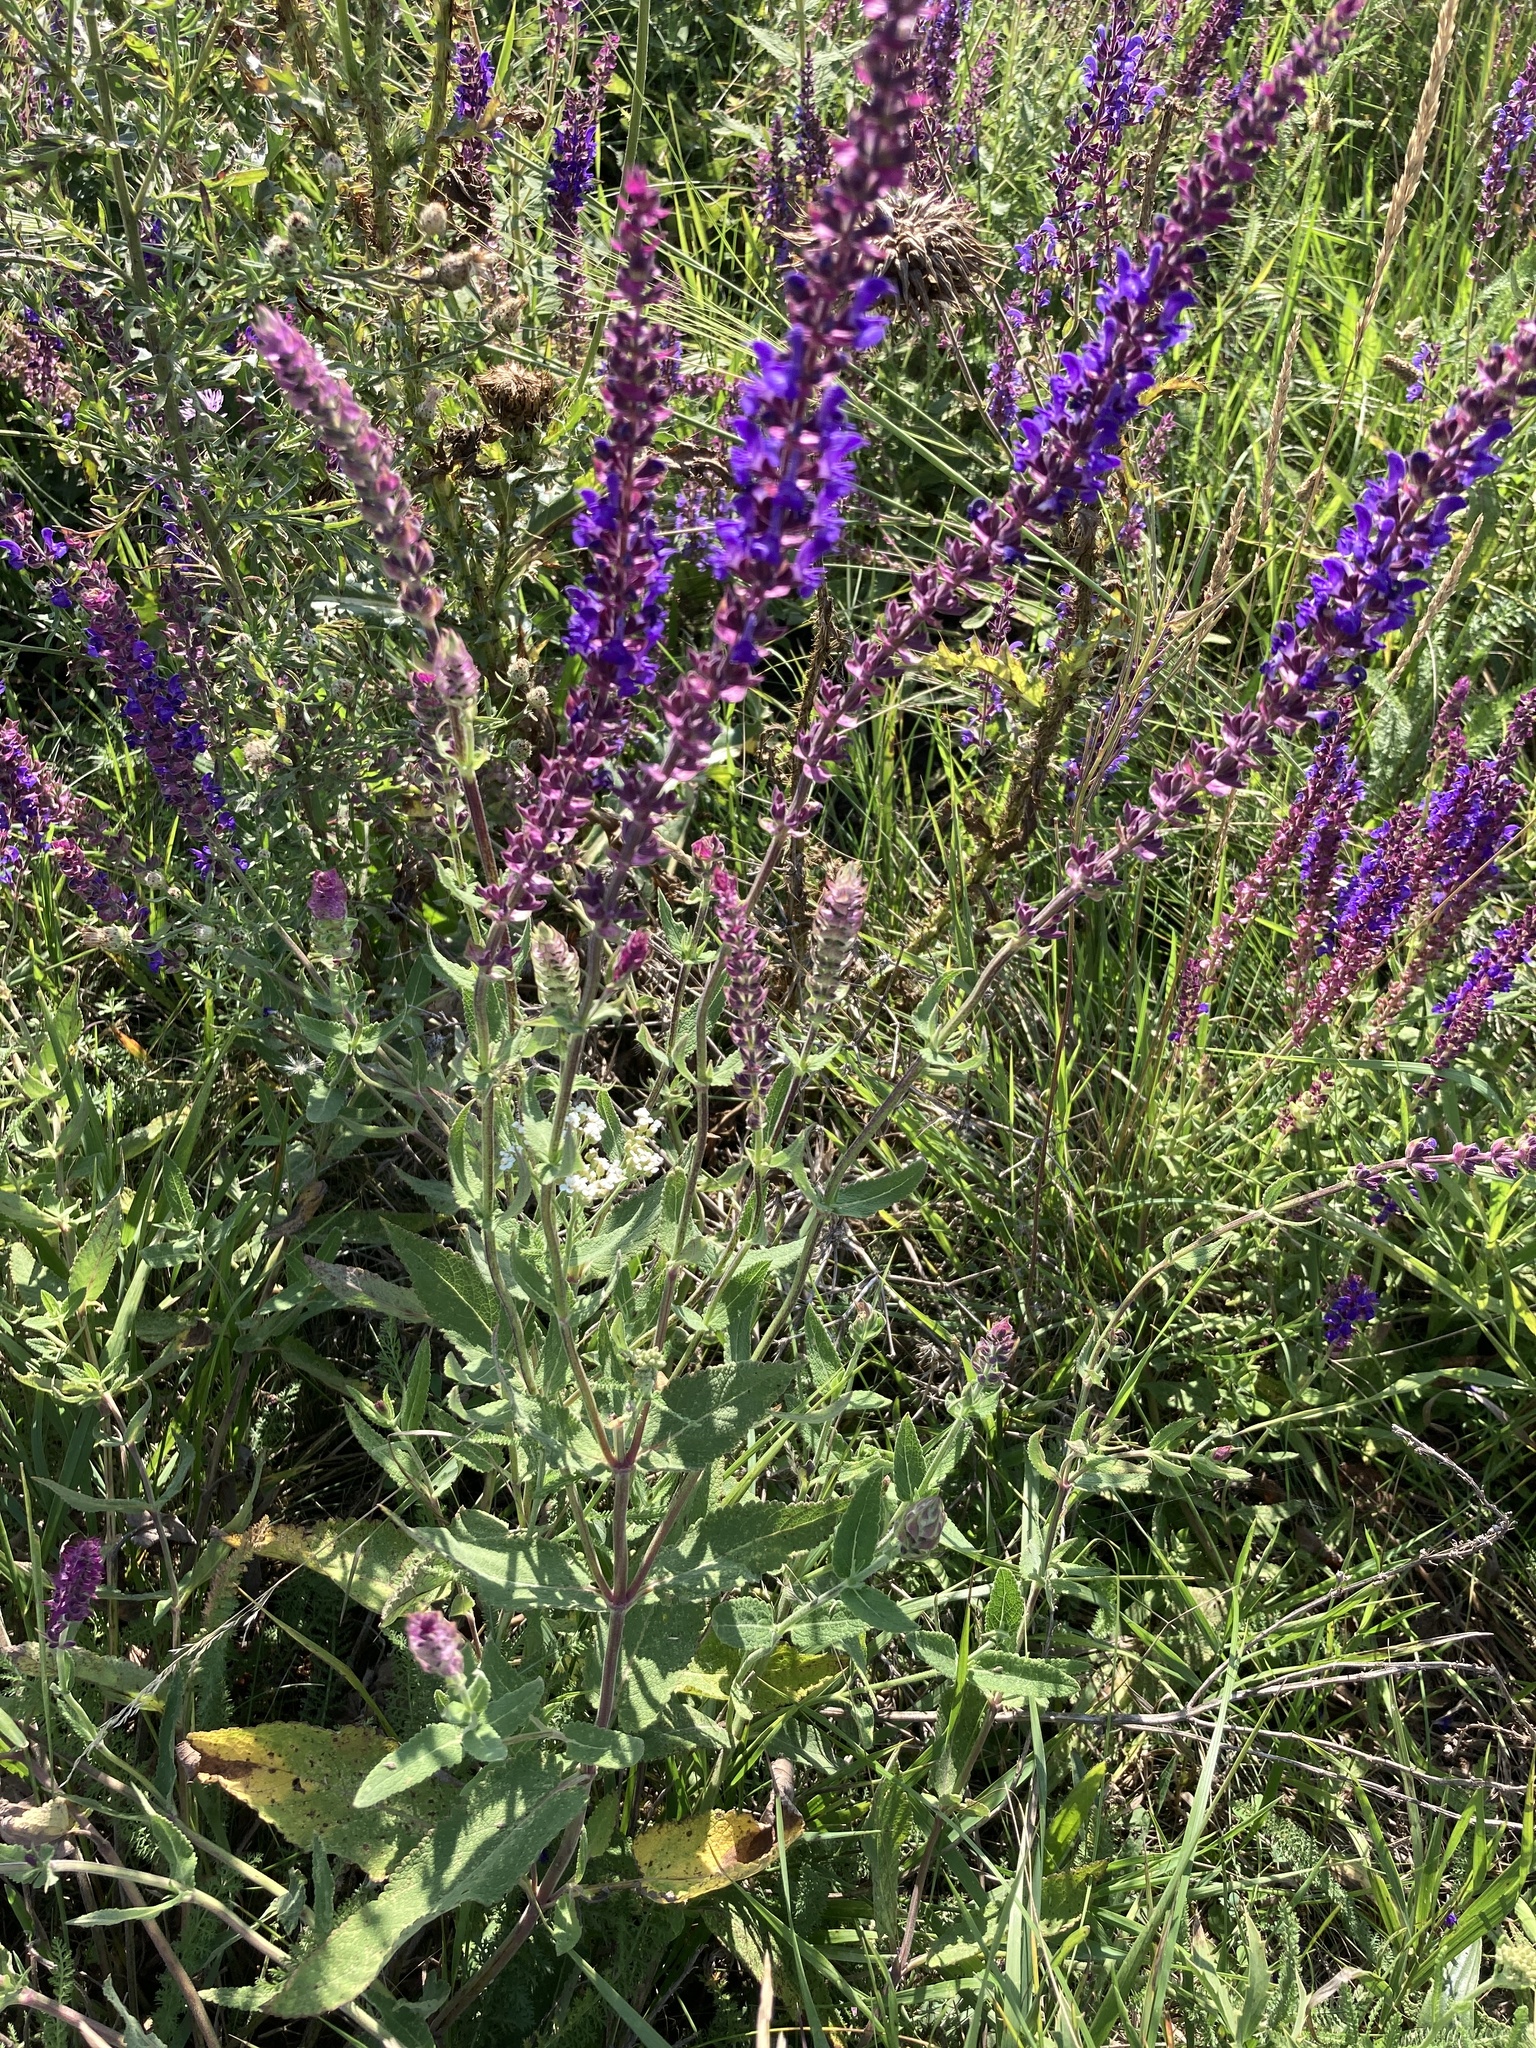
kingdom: Plantae
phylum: Tracheophyta
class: Magnoliopsida
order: Lamiales
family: Lamiaceae
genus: Salvia
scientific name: Salvia nemorosa
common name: Balkan clary
